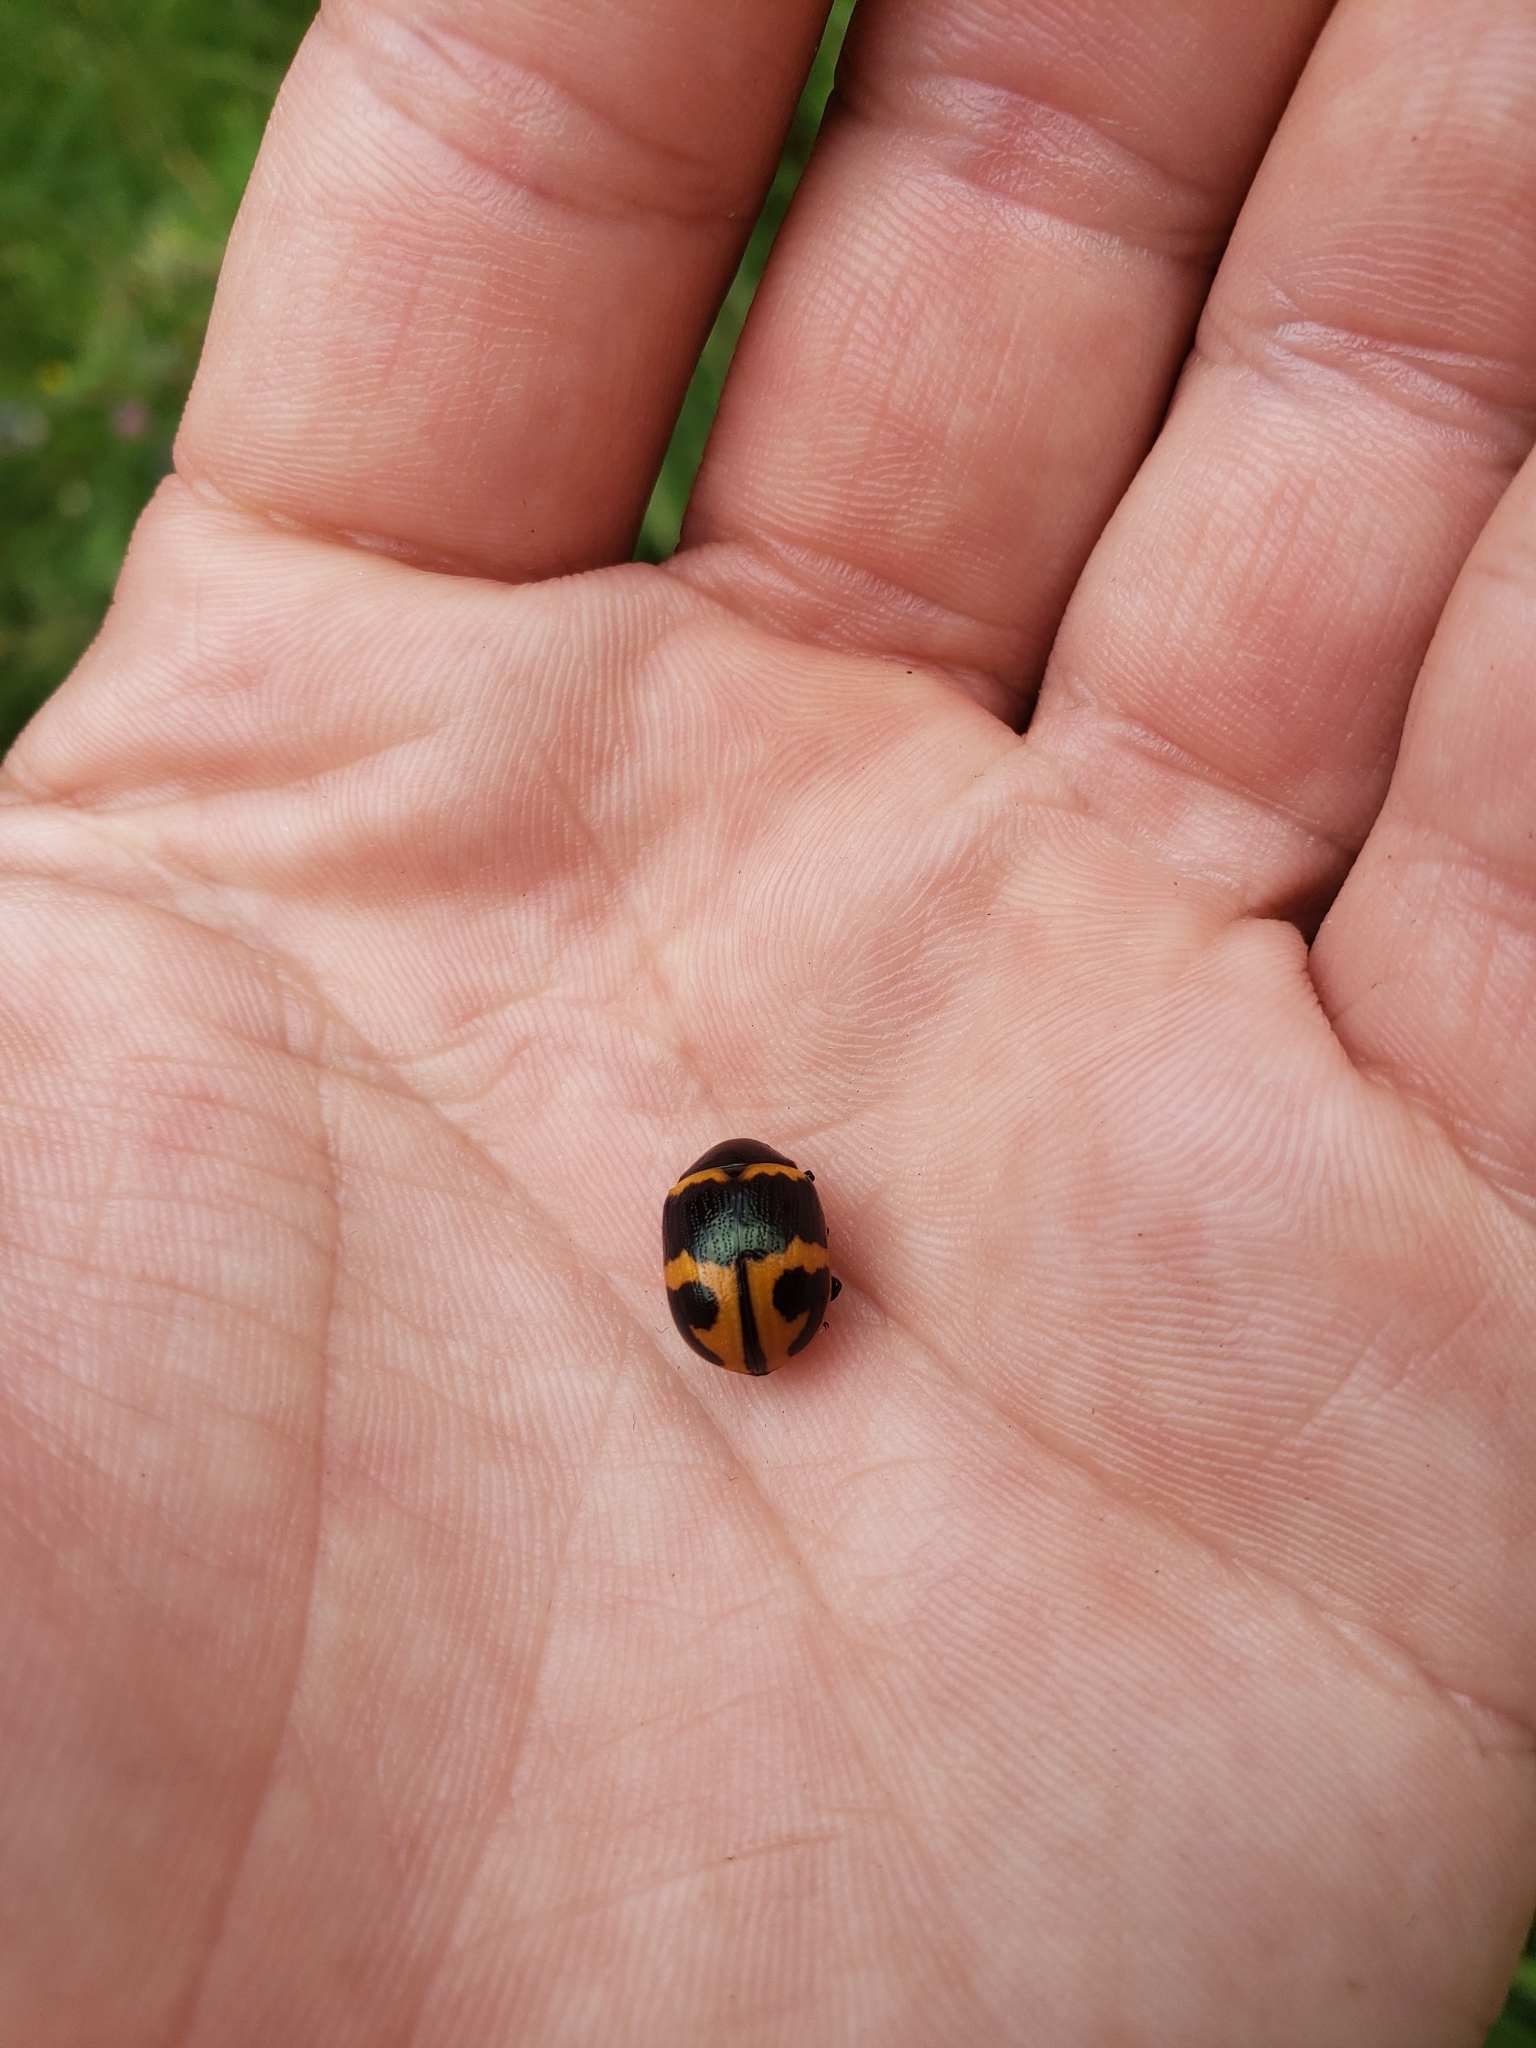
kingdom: Animalia
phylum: Arthropoda
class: Insecta
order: Coleoptera
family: Chrysomelidae
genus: Labidomera
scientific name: Labidomera clivicollis
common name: Swamp milkweed leaf beetle
